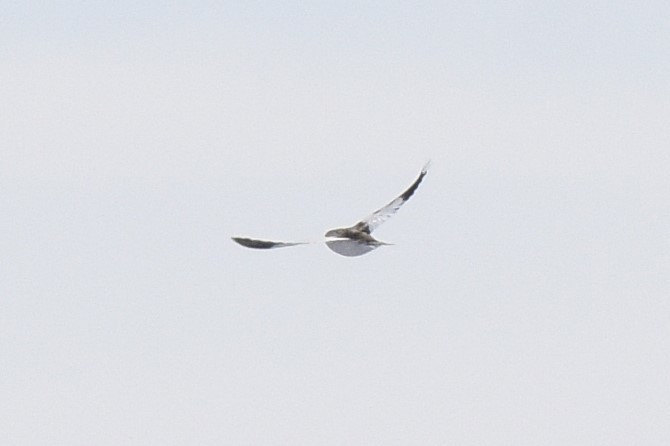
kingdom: Animalia
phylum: Chordata
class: Aves
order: Passeriformes
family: Calcariidae
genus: Plectrophenax
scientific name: Plectrophenax nivalis
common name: Snow bunting
